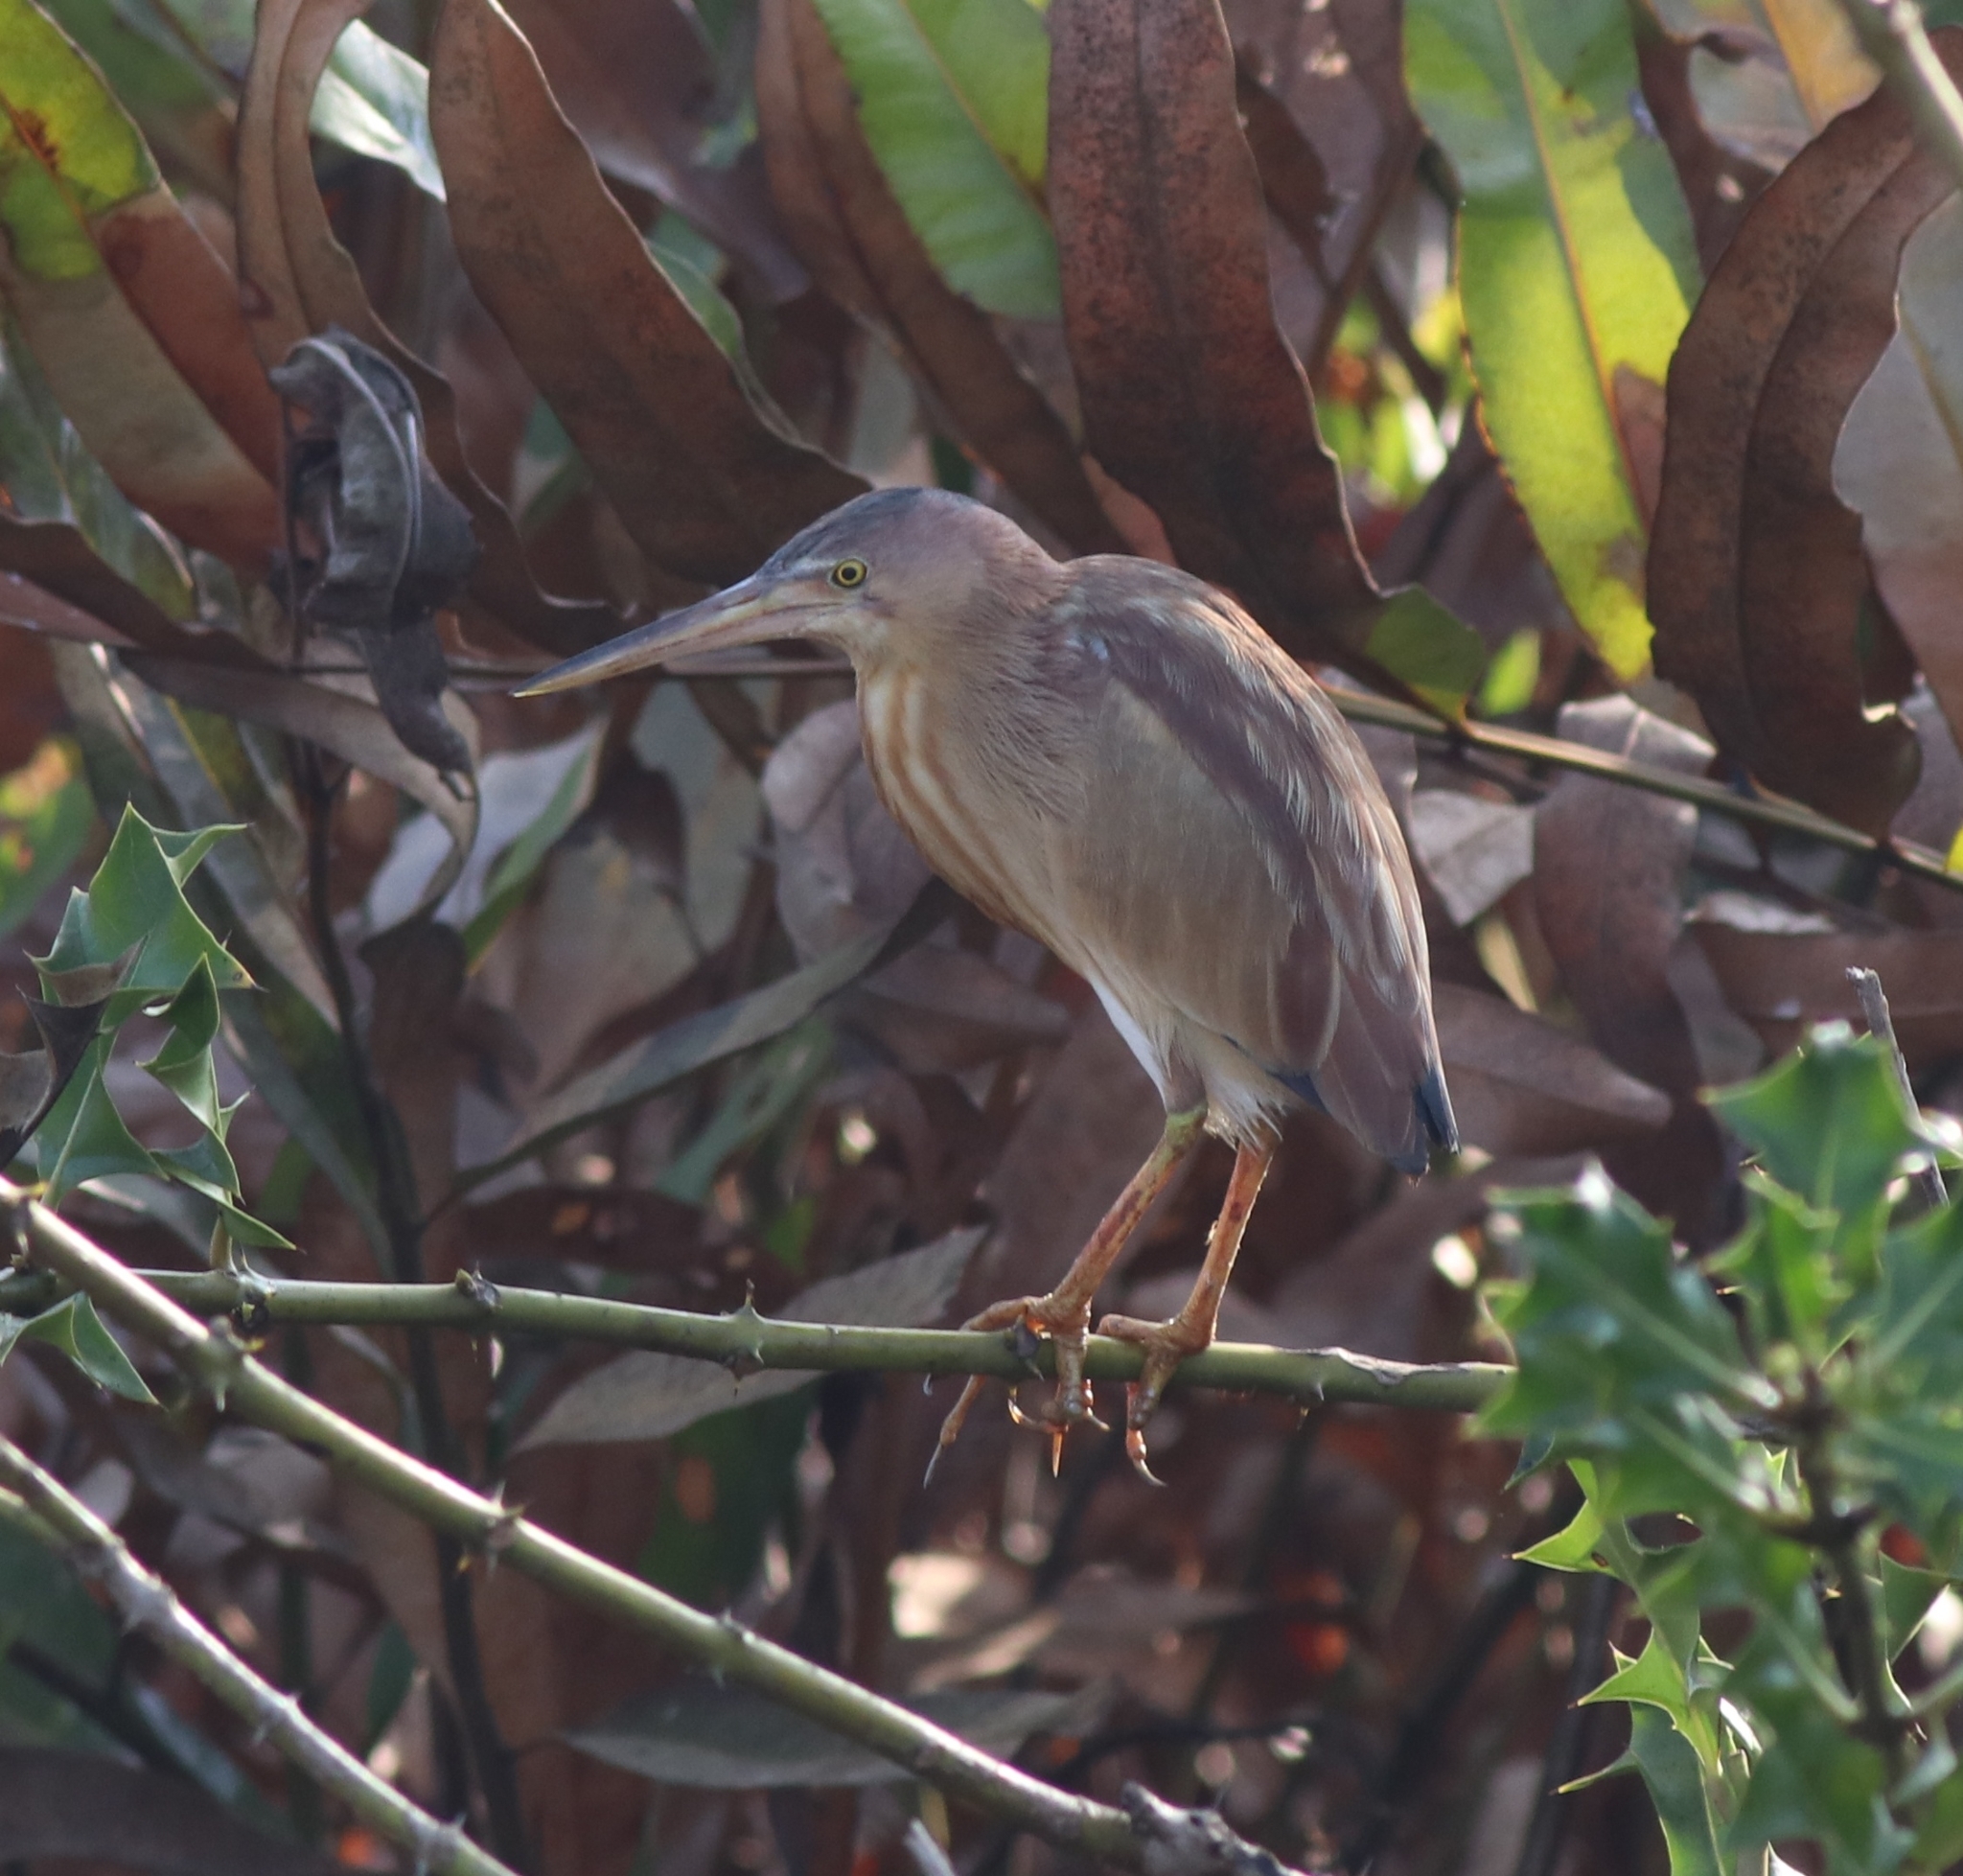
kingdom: Animalia
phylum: Chordata
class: Aves
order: Pelecaniformes
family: Ardeidae
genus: Ixobrychus
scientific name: Ixobrychus sinensis
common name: Yellow bittern
